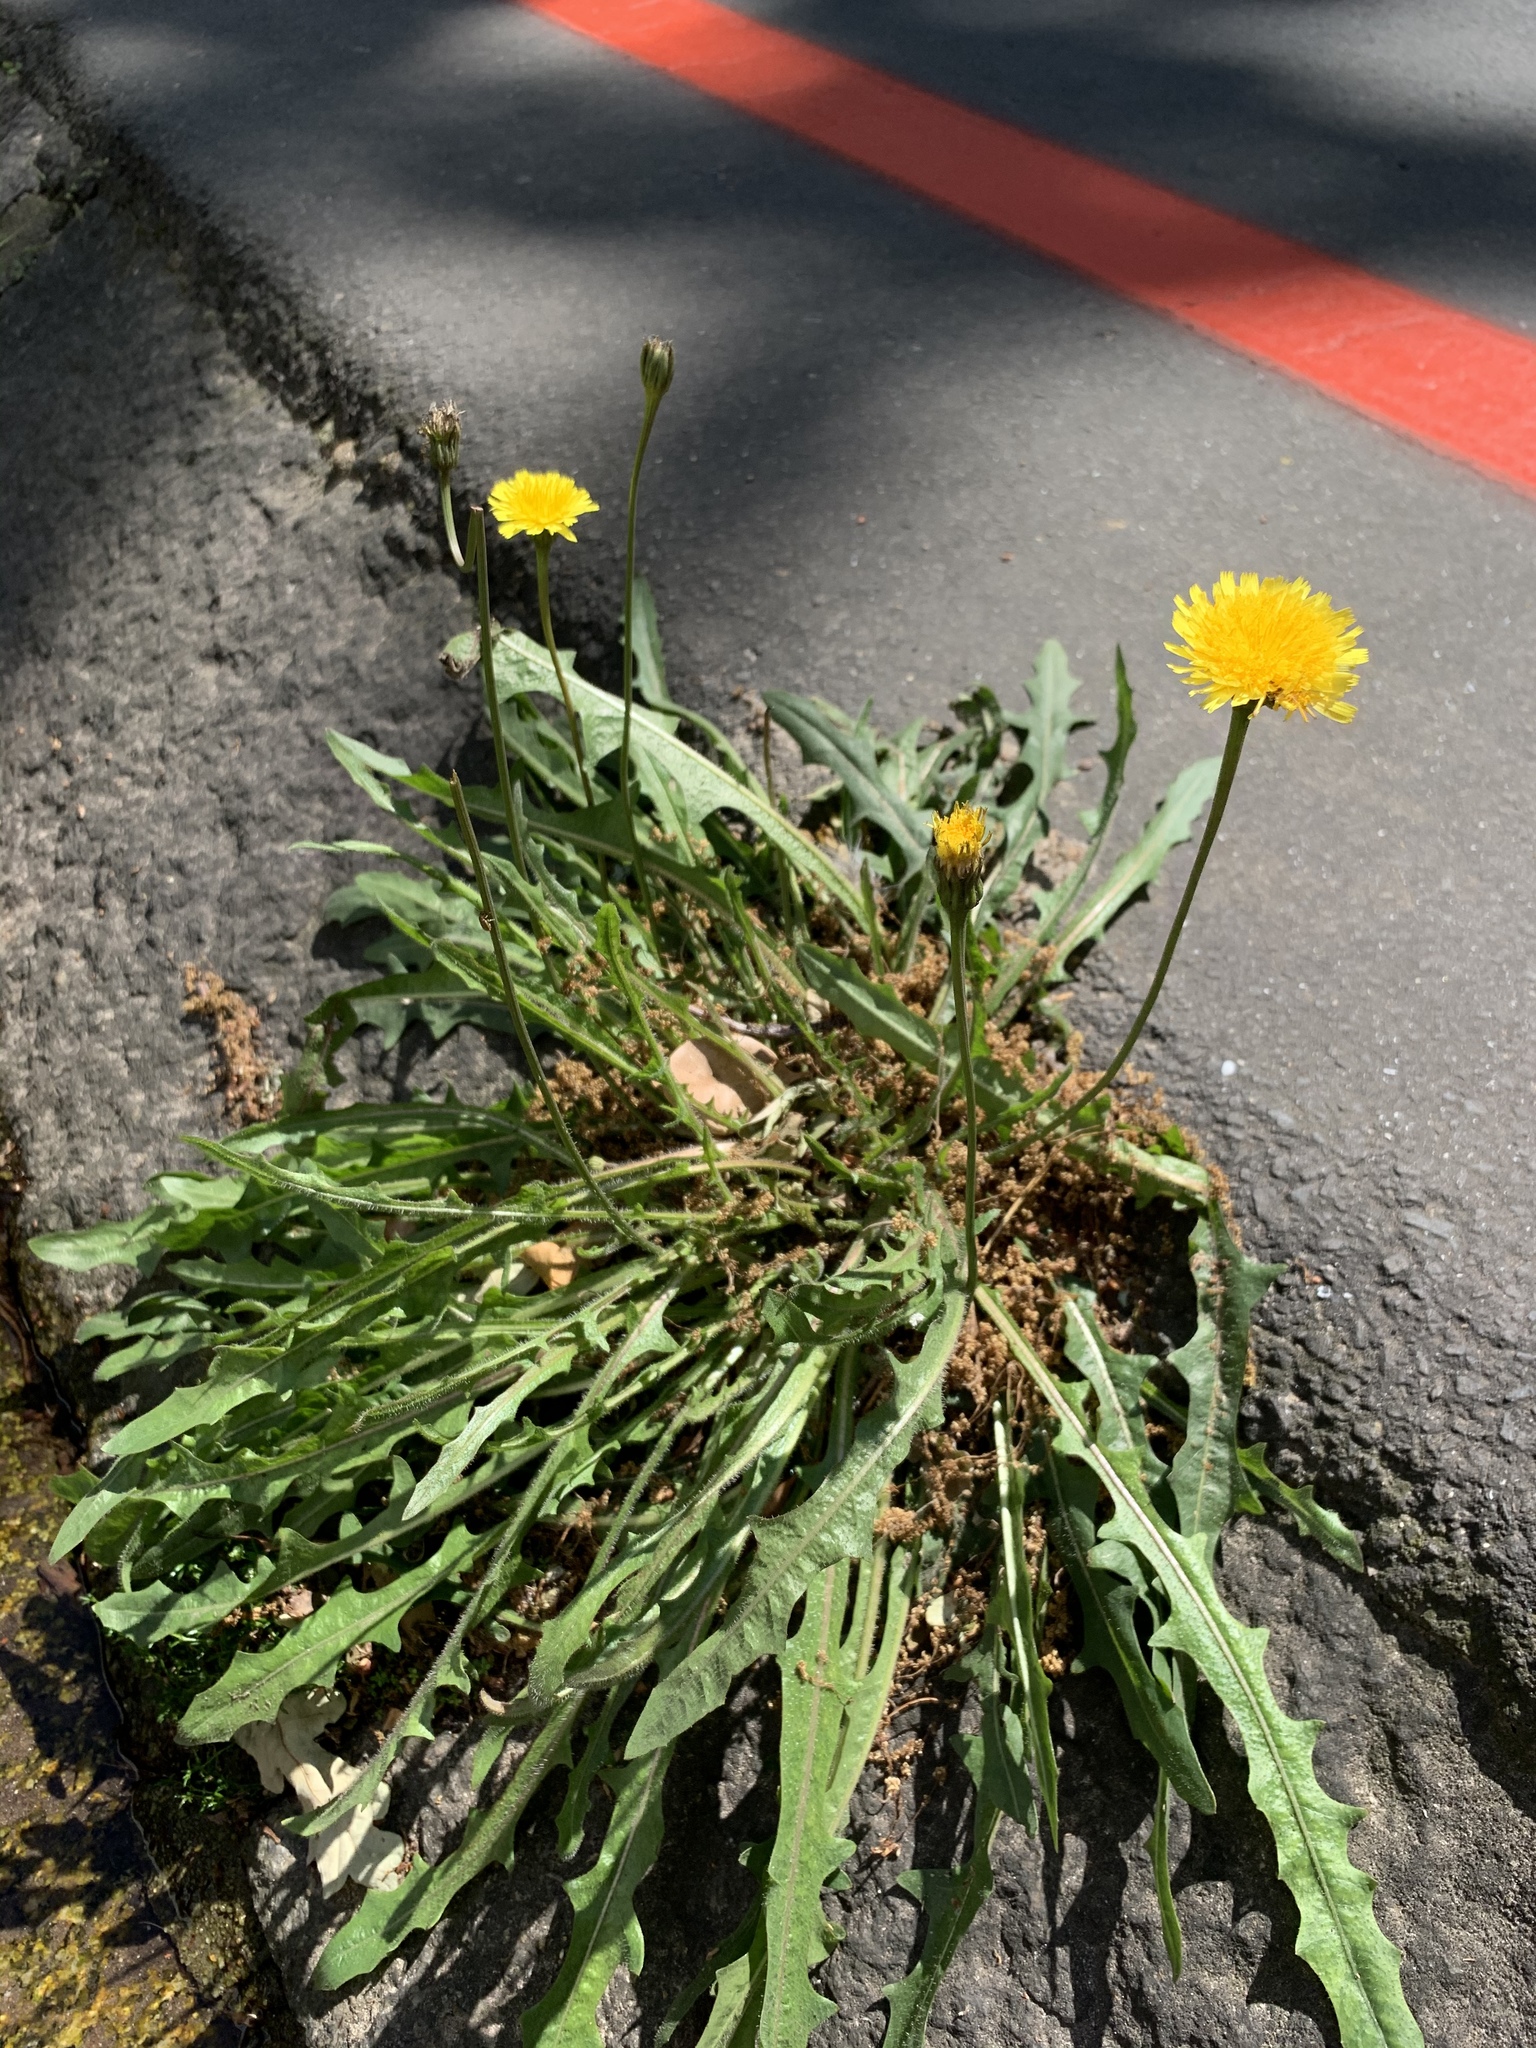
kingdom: Plantae
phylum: Tracheophyta
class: Magnoliopsida
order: Asterales
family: Asteraceae
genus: Hypochaeris
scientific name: Hypochaeris radicata
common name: Flatweed
